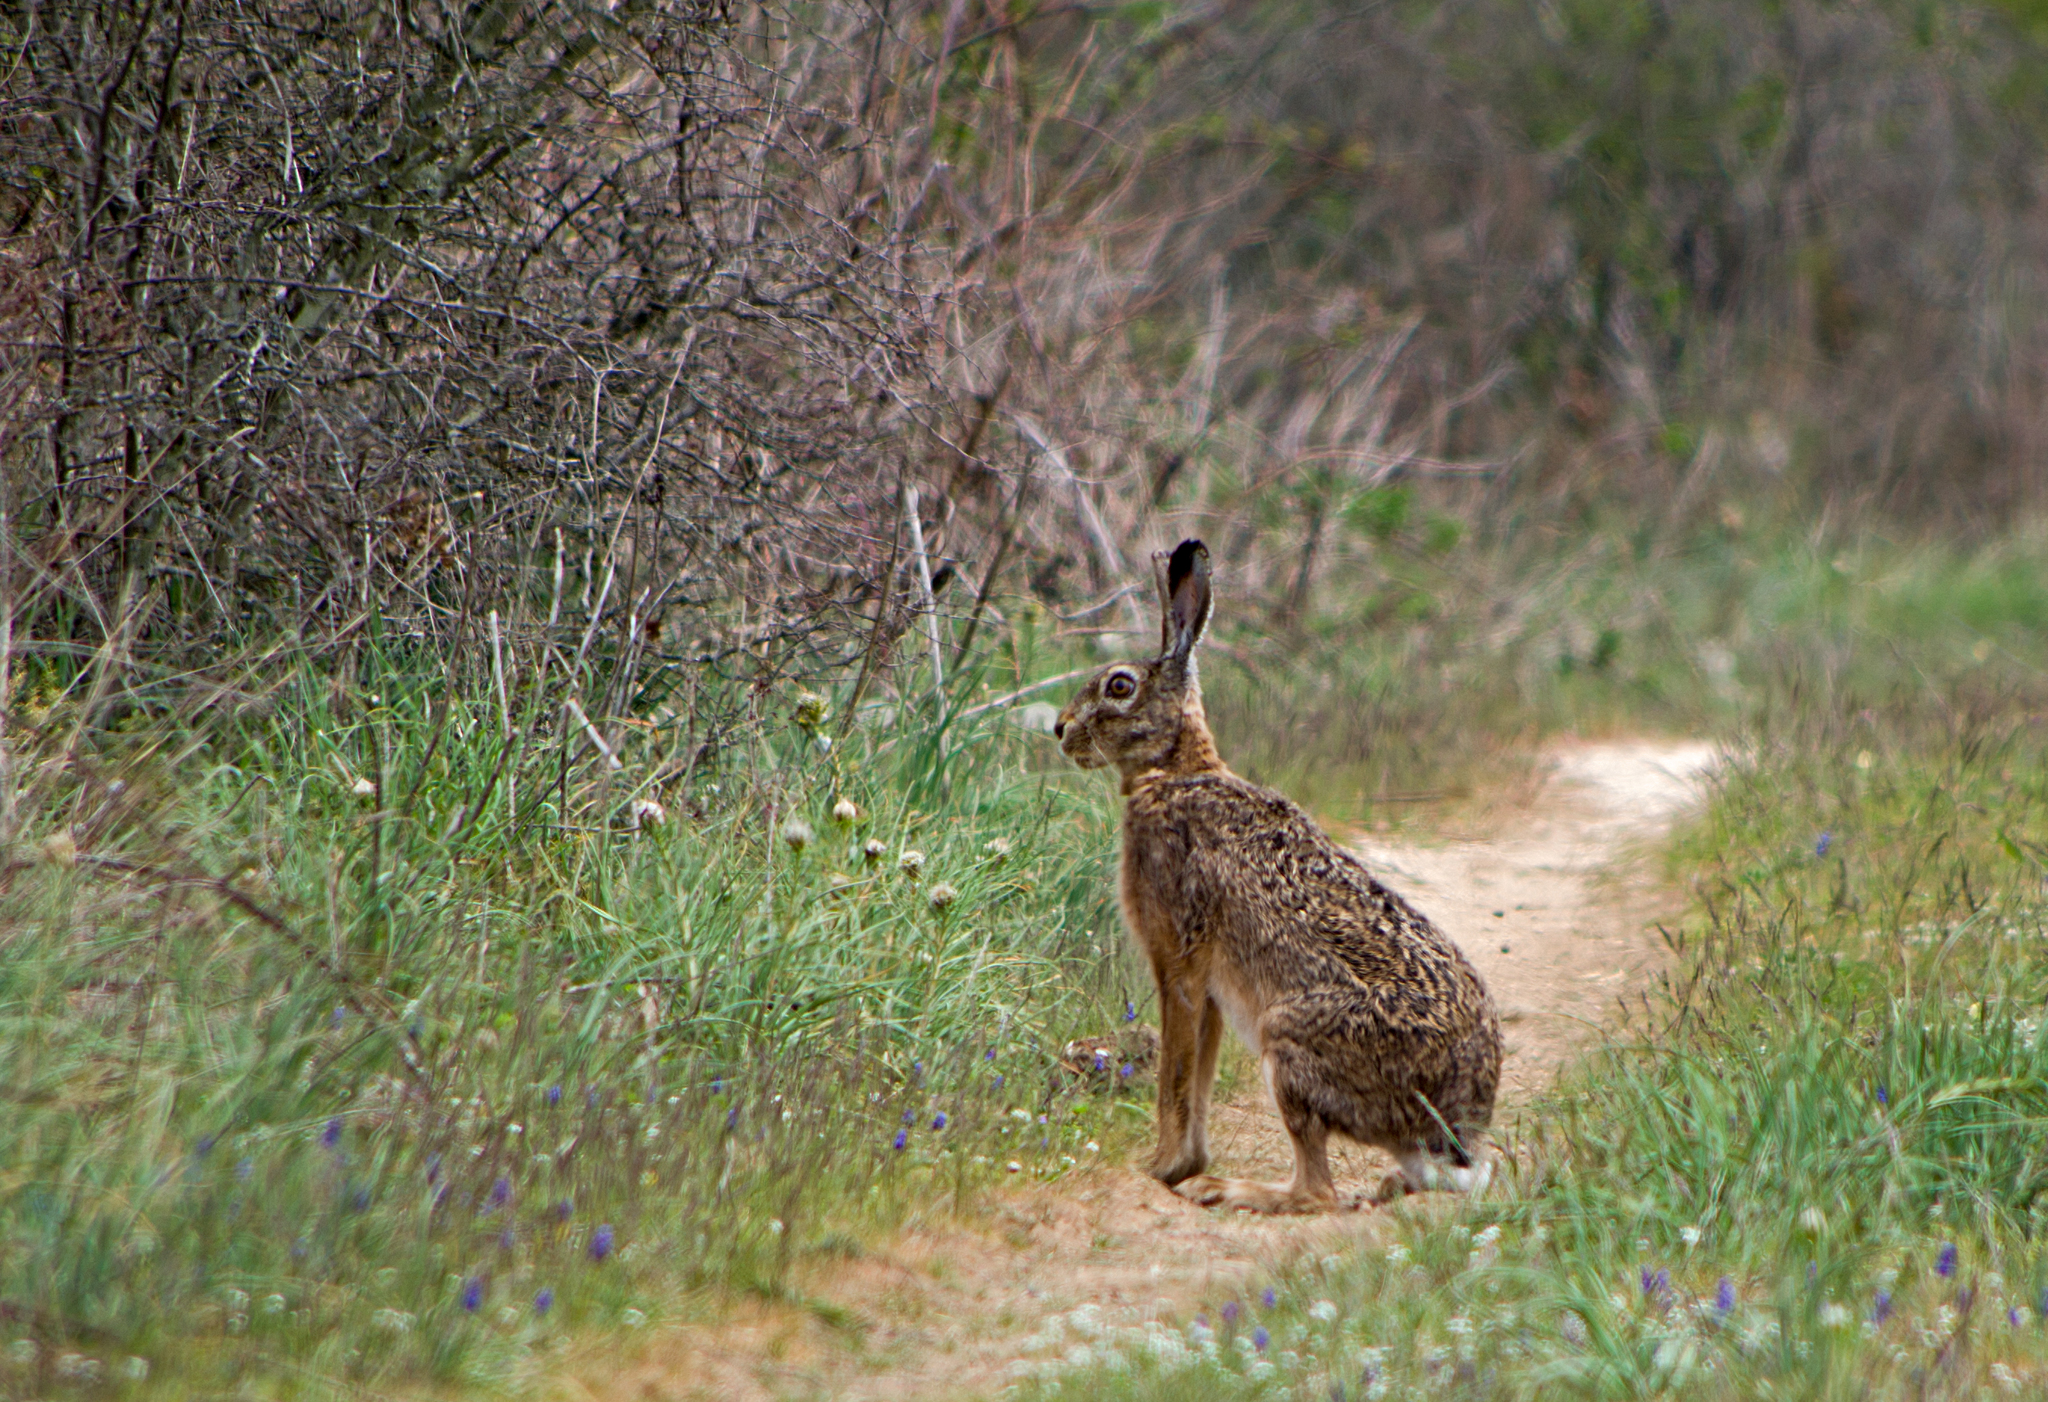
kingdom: Animalia
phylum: Chordata
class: Mammalia
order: Lagomorpha
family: Leporidae
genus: Lepus
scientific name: Lepus europaeus
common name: European hare
